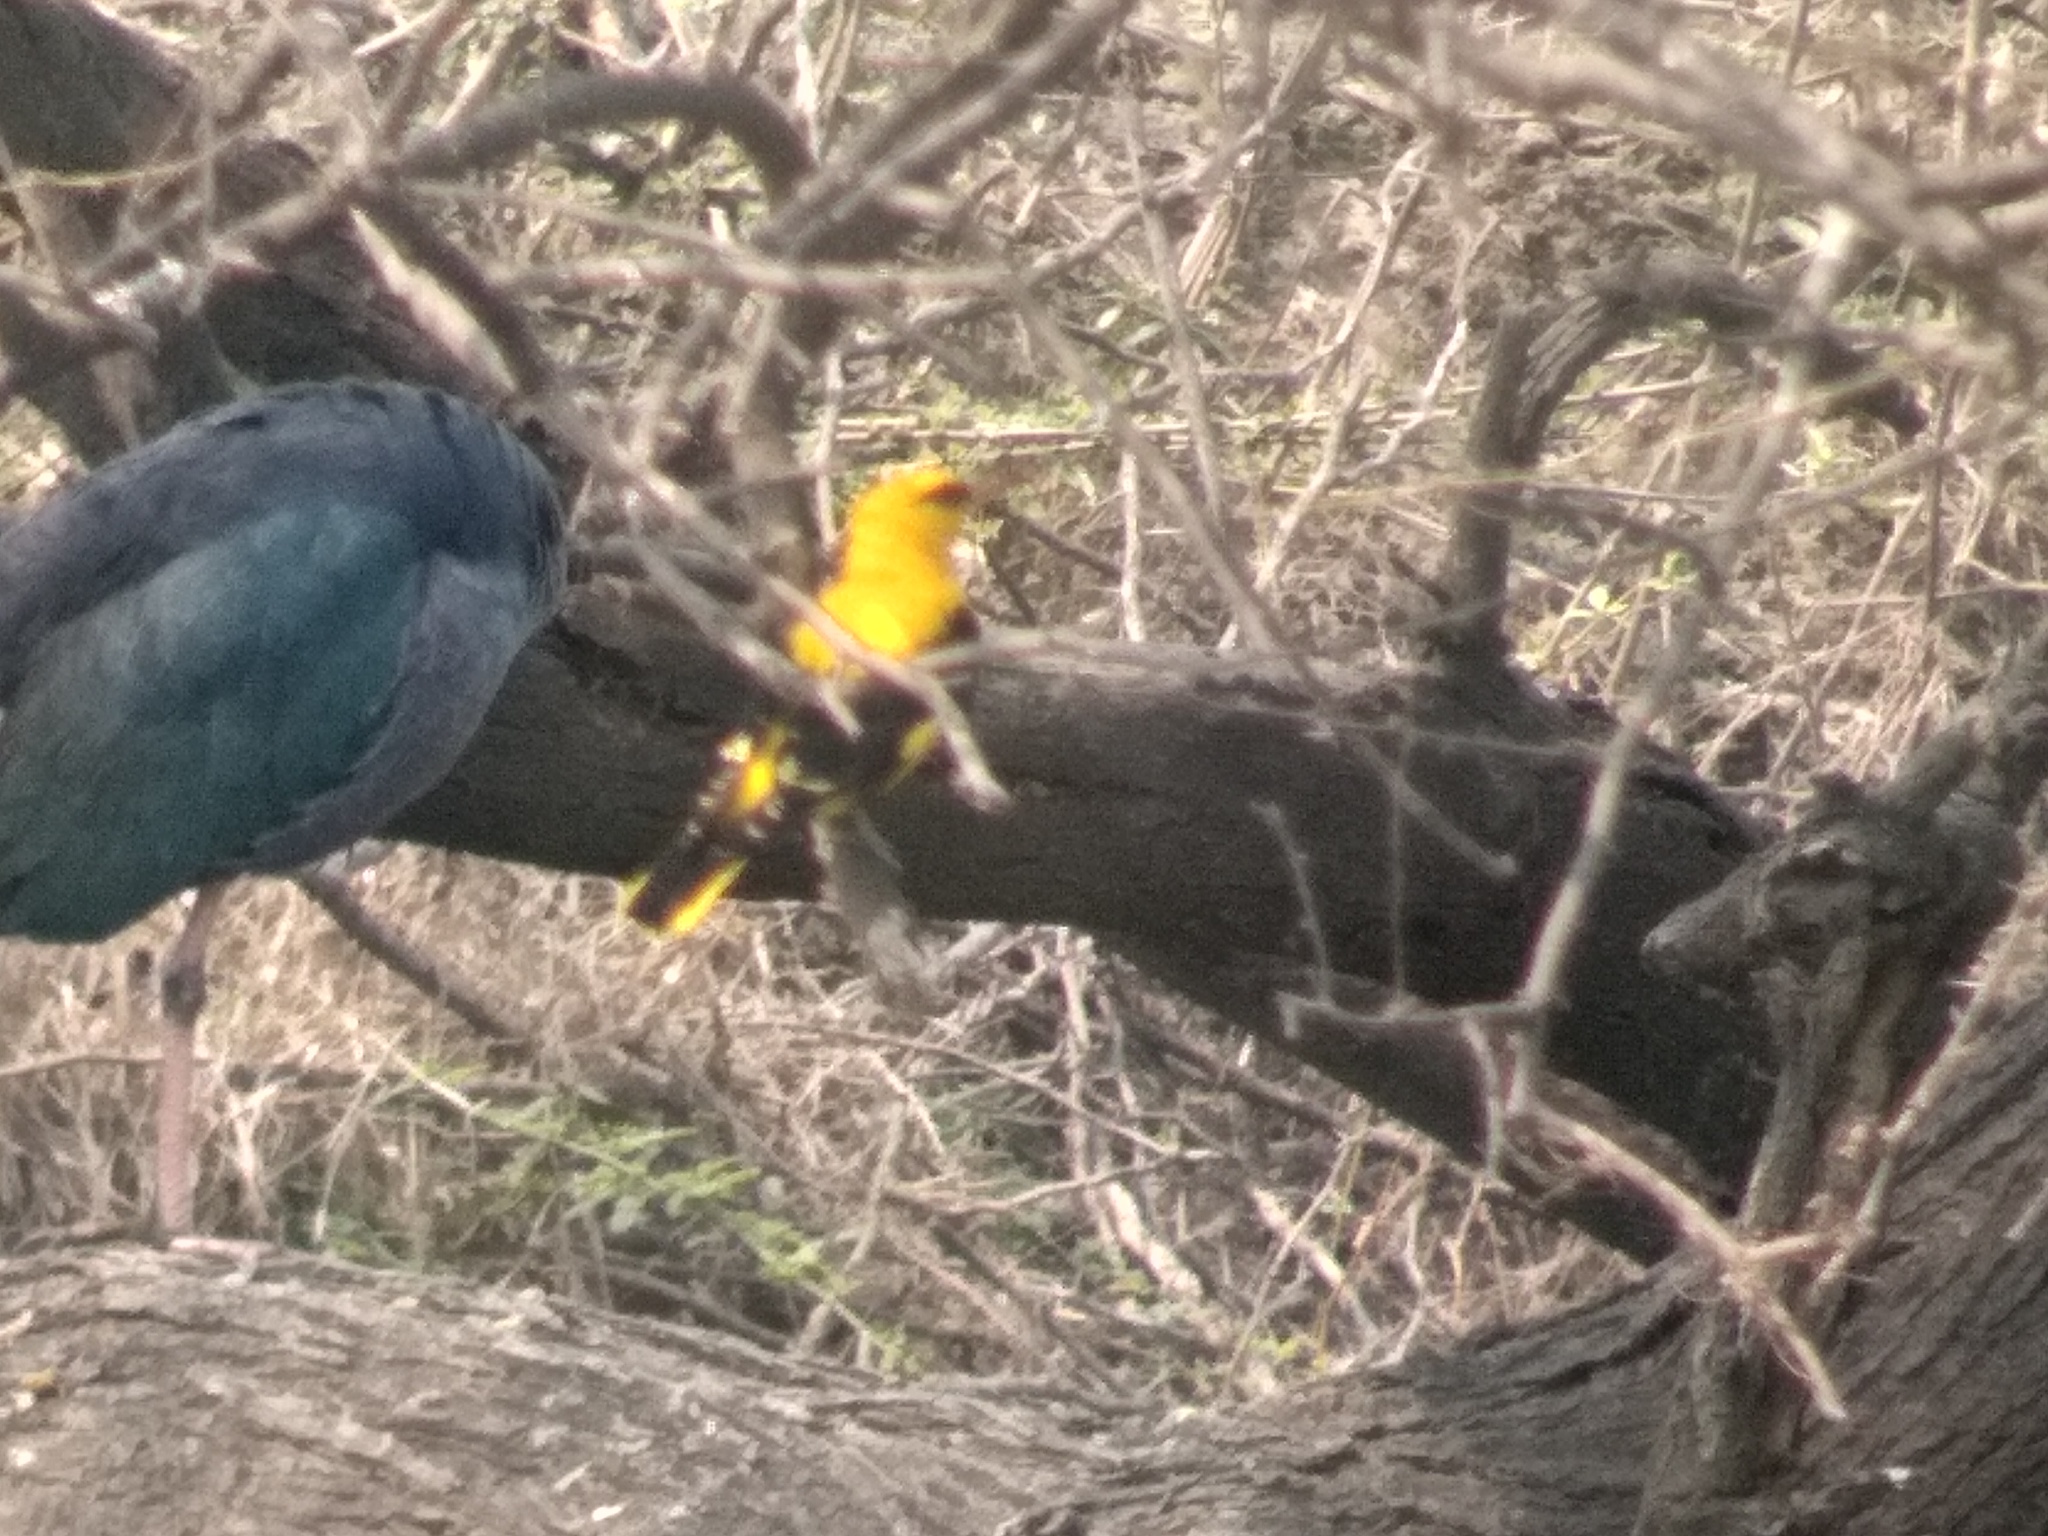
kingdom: Animalia
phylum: Chordata
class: Aves
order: Passeriformes
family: Oriolidae
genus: Oriolus
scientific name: Oriolus kundoo
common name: Indian golden oriole
